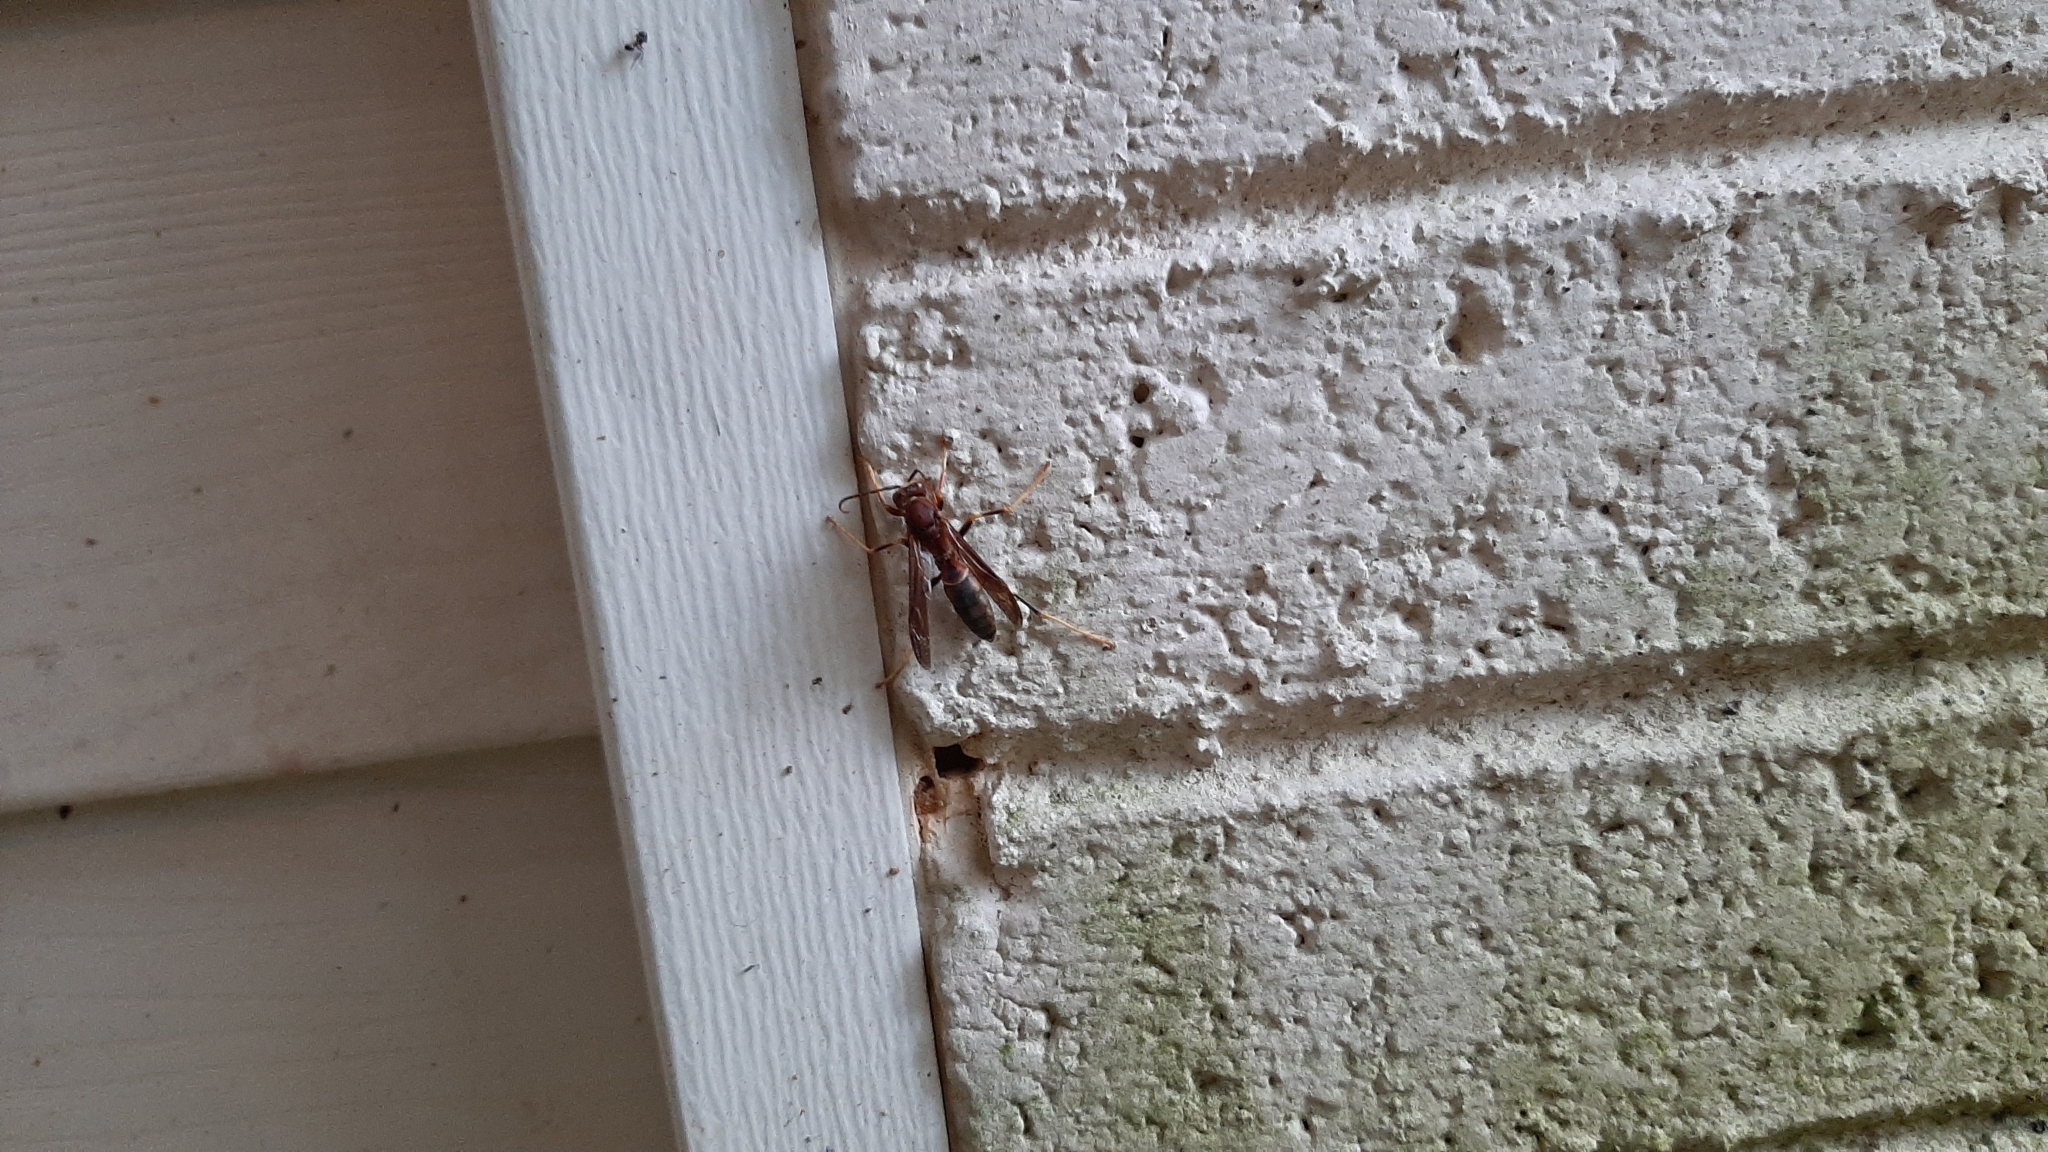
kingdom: Animalia
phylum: Arthropoda
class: Insecta
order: Hymenoptera
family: Eumenidae
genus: Polistes
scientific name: Polistes annularis
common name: Ringed paper wasp
